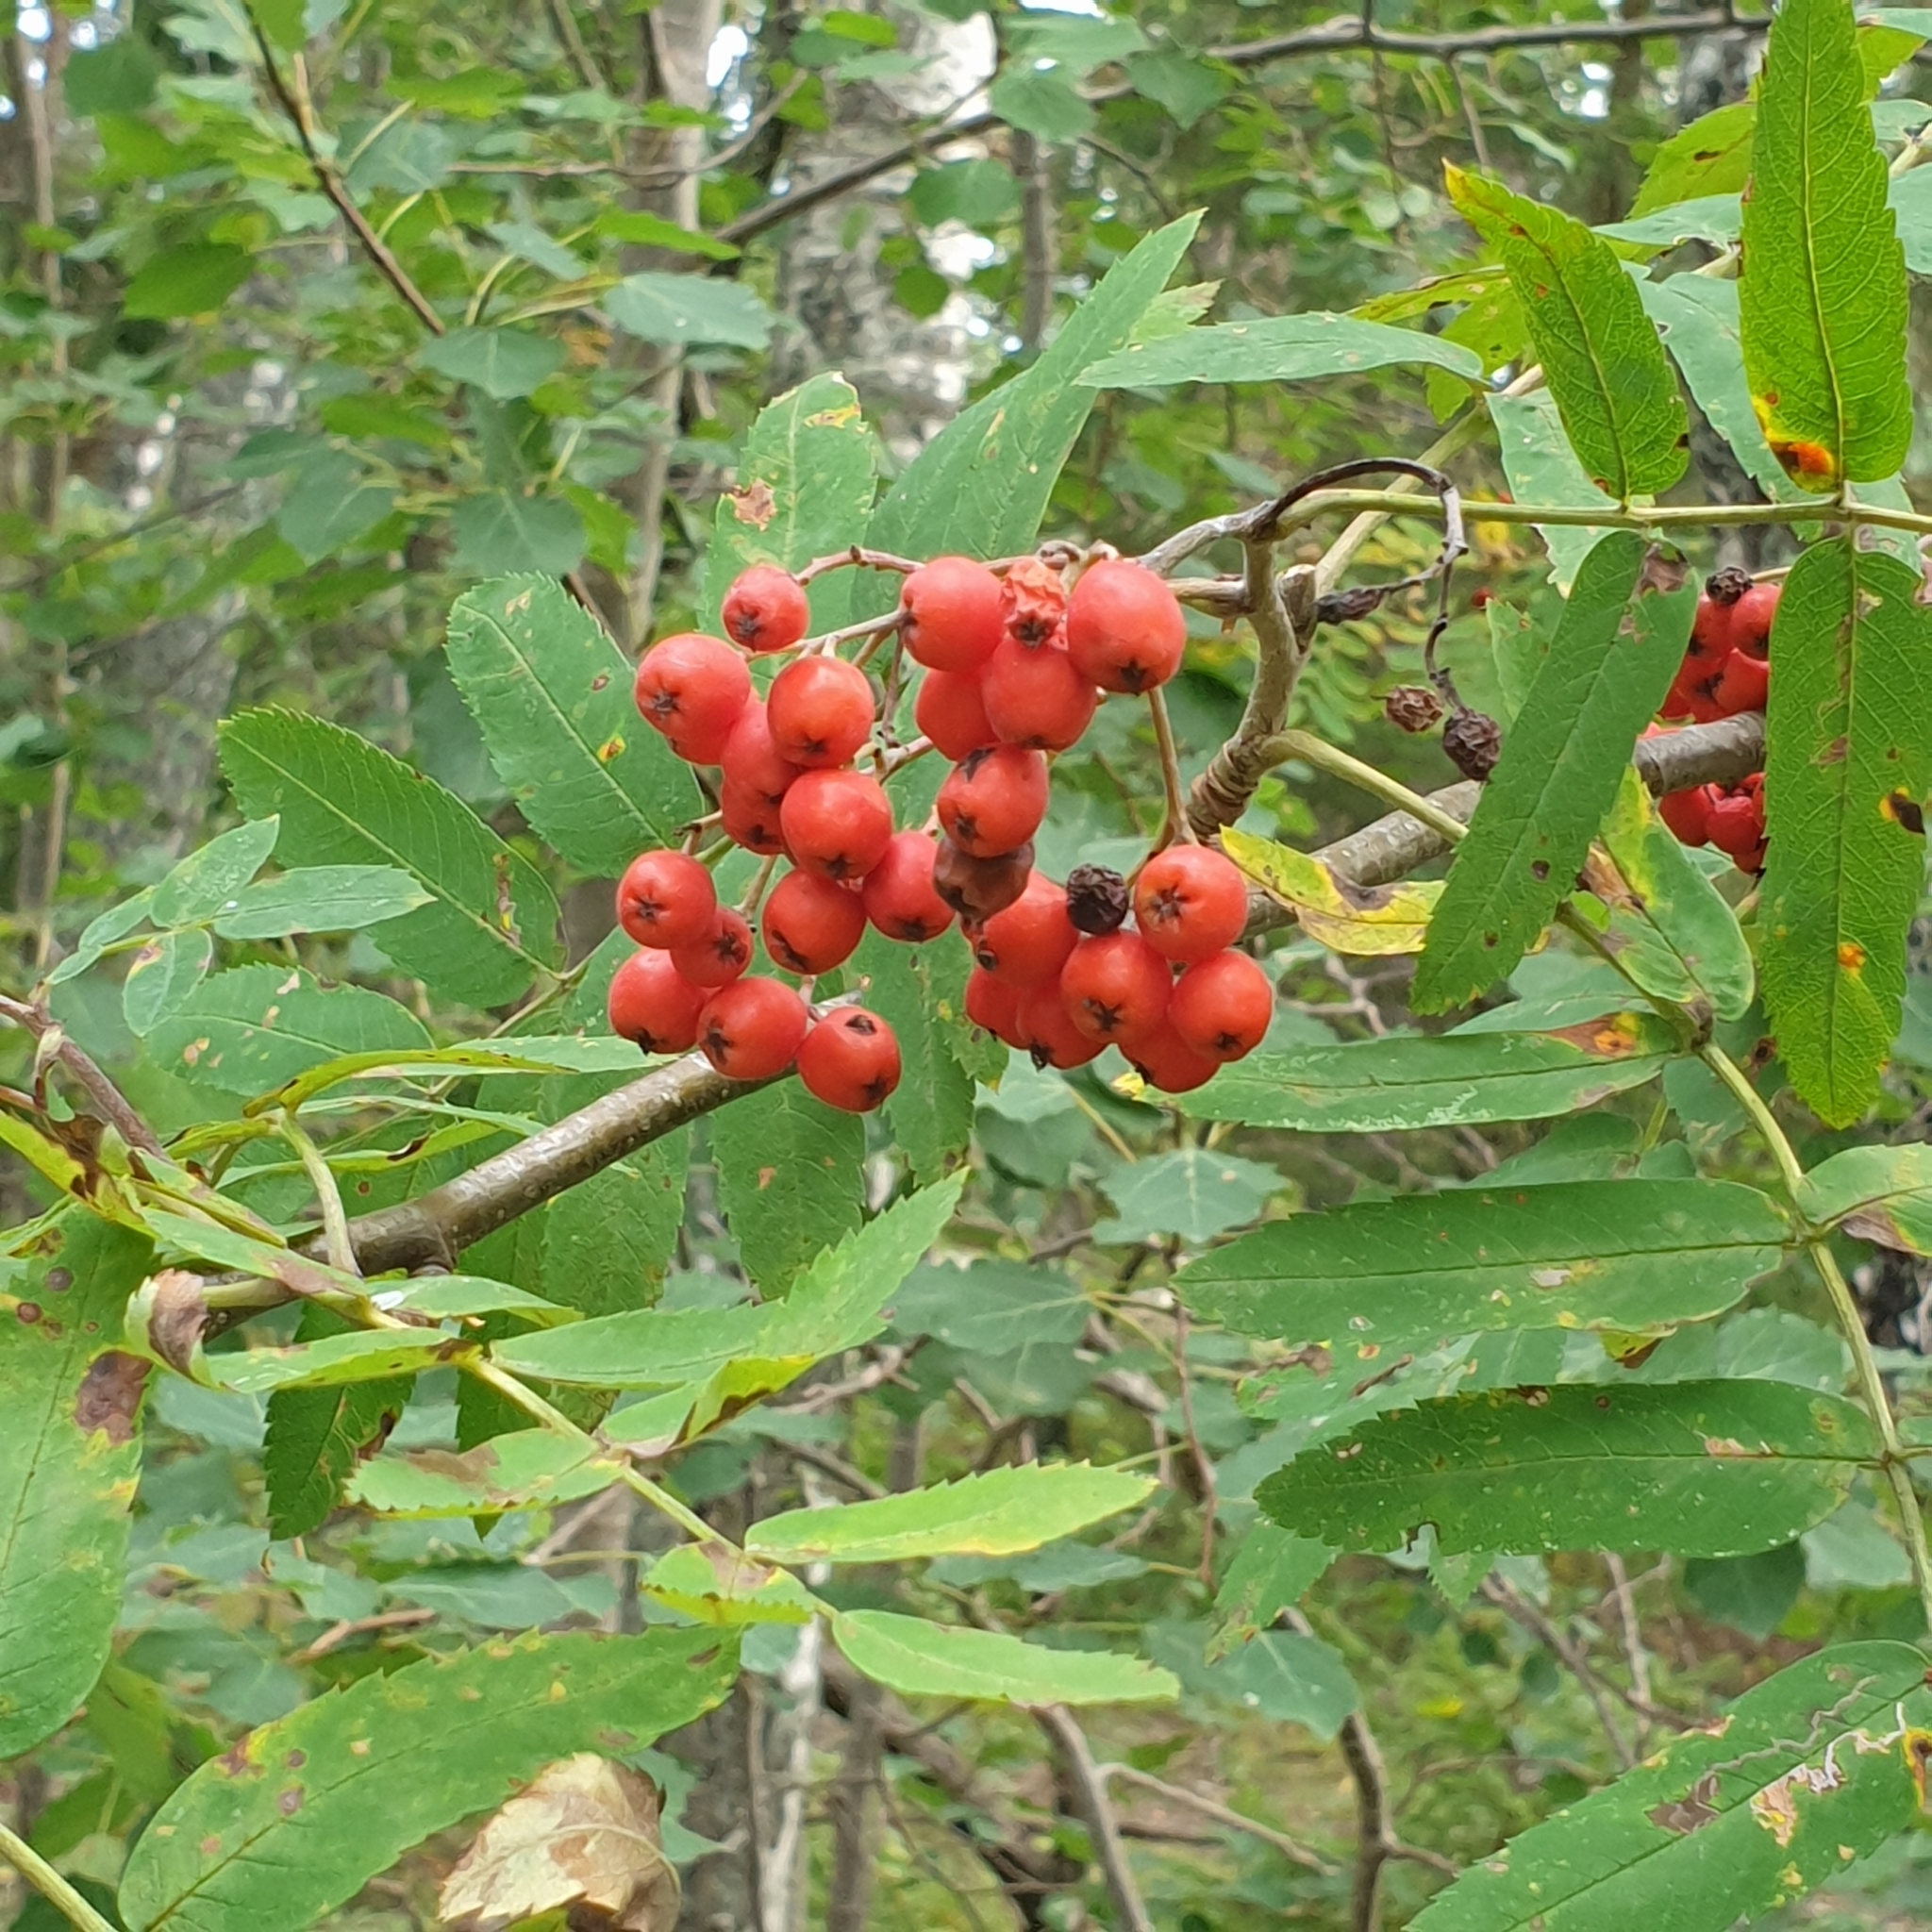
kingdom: Plantae
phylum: Tracheophyta
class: Magnoliopsida
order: Rosales
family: Rosaceae
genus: Sorbus
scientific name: Sorbus aucuparia
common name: Rowan
